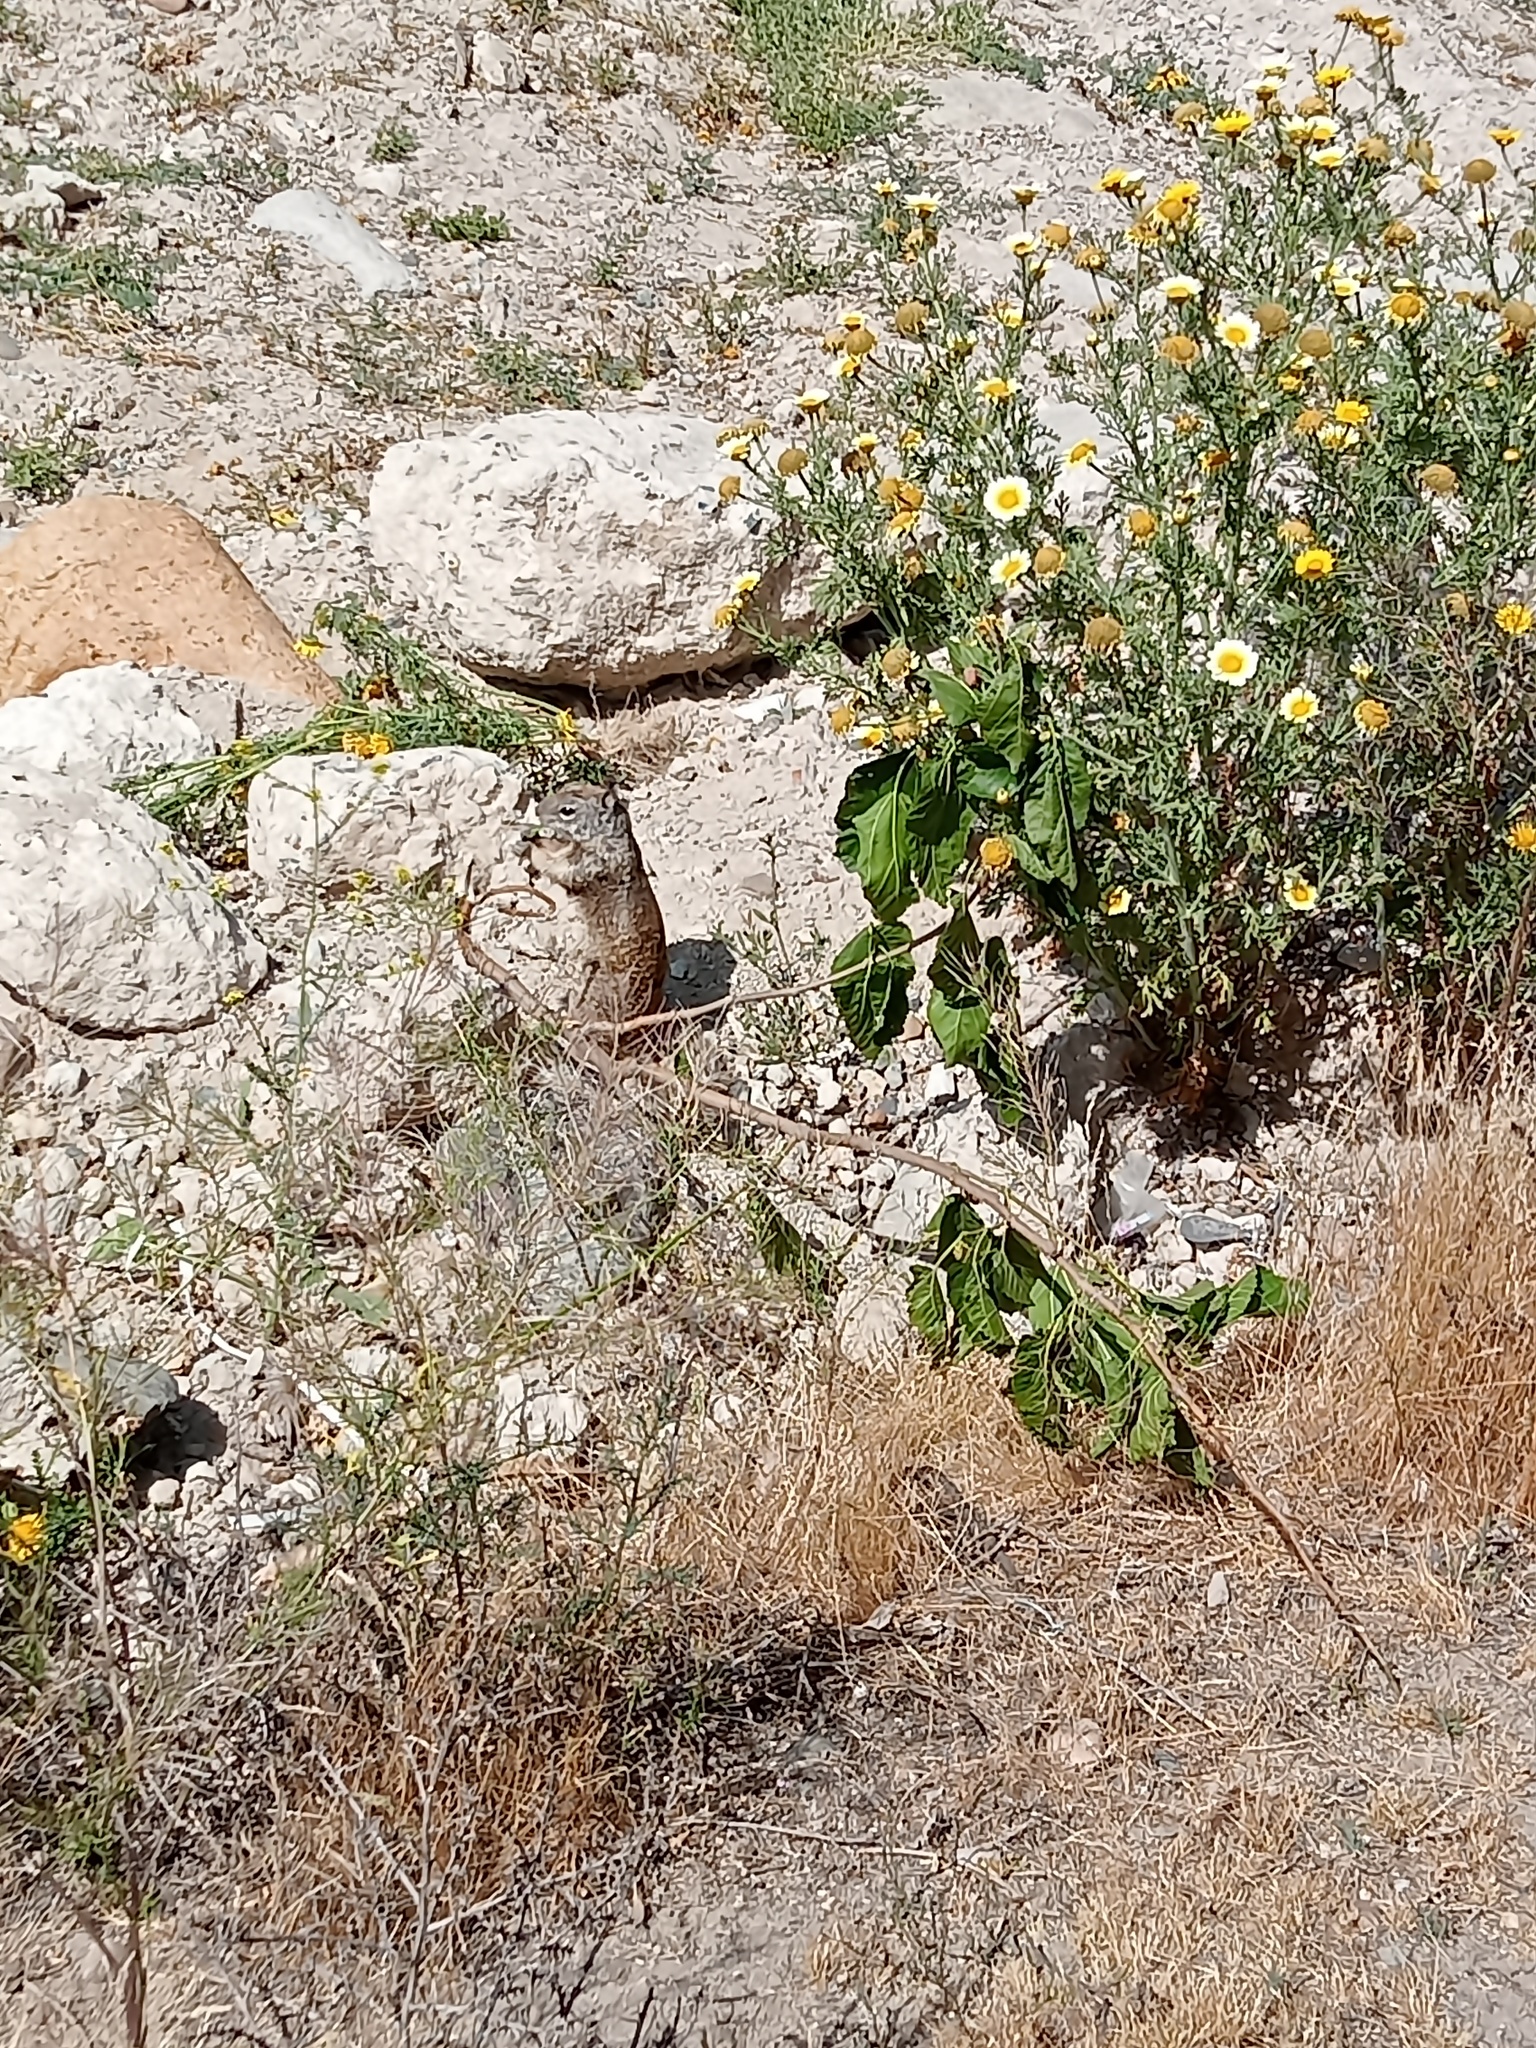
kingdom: Animalia
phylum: Chordata
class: Mammalia
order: Rodentia
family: Sciuridae
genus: Otospermophilus
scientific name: Otospermophilus beecheyi
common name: California ground squirrel
